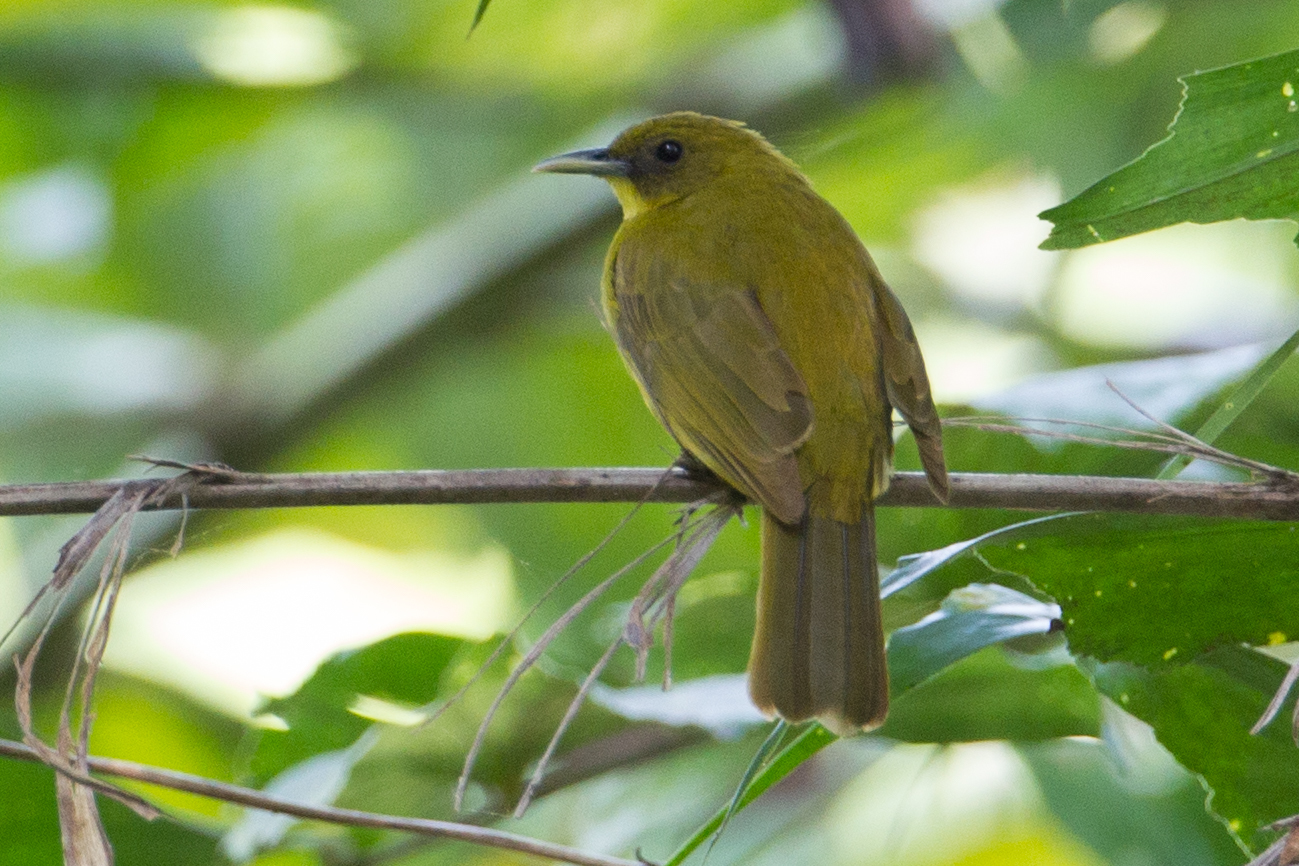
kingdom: Animalia
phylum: Chordata
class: Aves
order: Passeriformes
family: Pycnonotidae
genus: Thapsinillas
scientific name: Thapsinillas longirostris
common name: Northern golden bulbul
